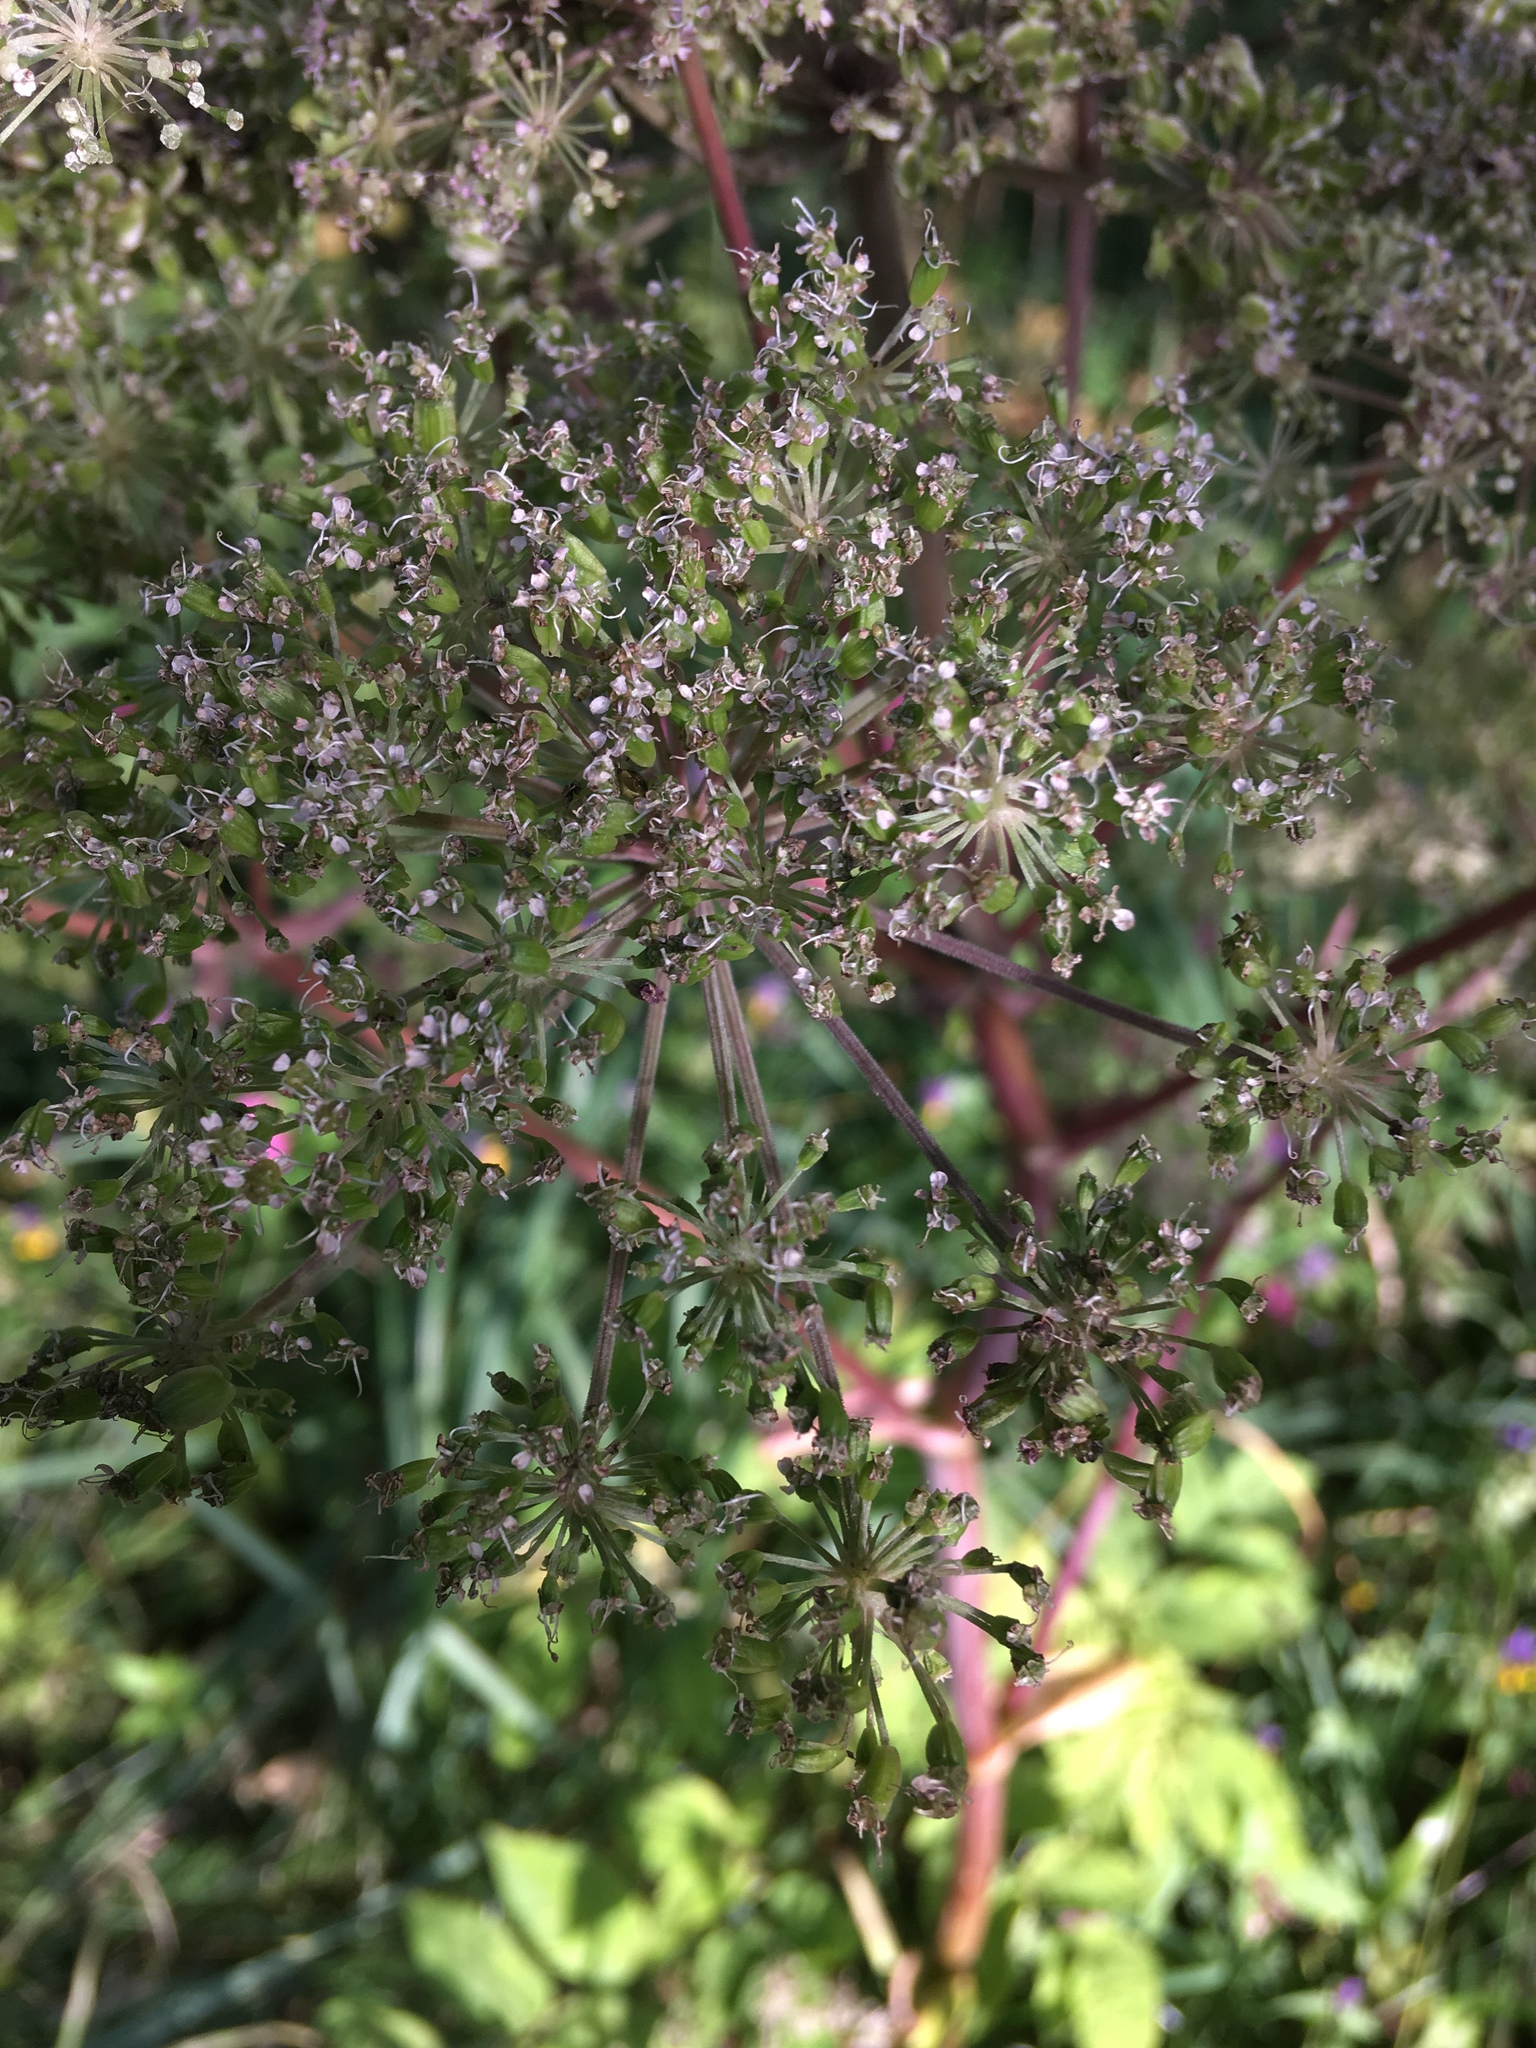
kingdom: Plantae
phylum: Tracheophyta
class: Magnoliopsida
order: Apiales
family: Apiaceae
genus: Angelica
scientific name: Angelica sylvestris
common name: Wild angelica
